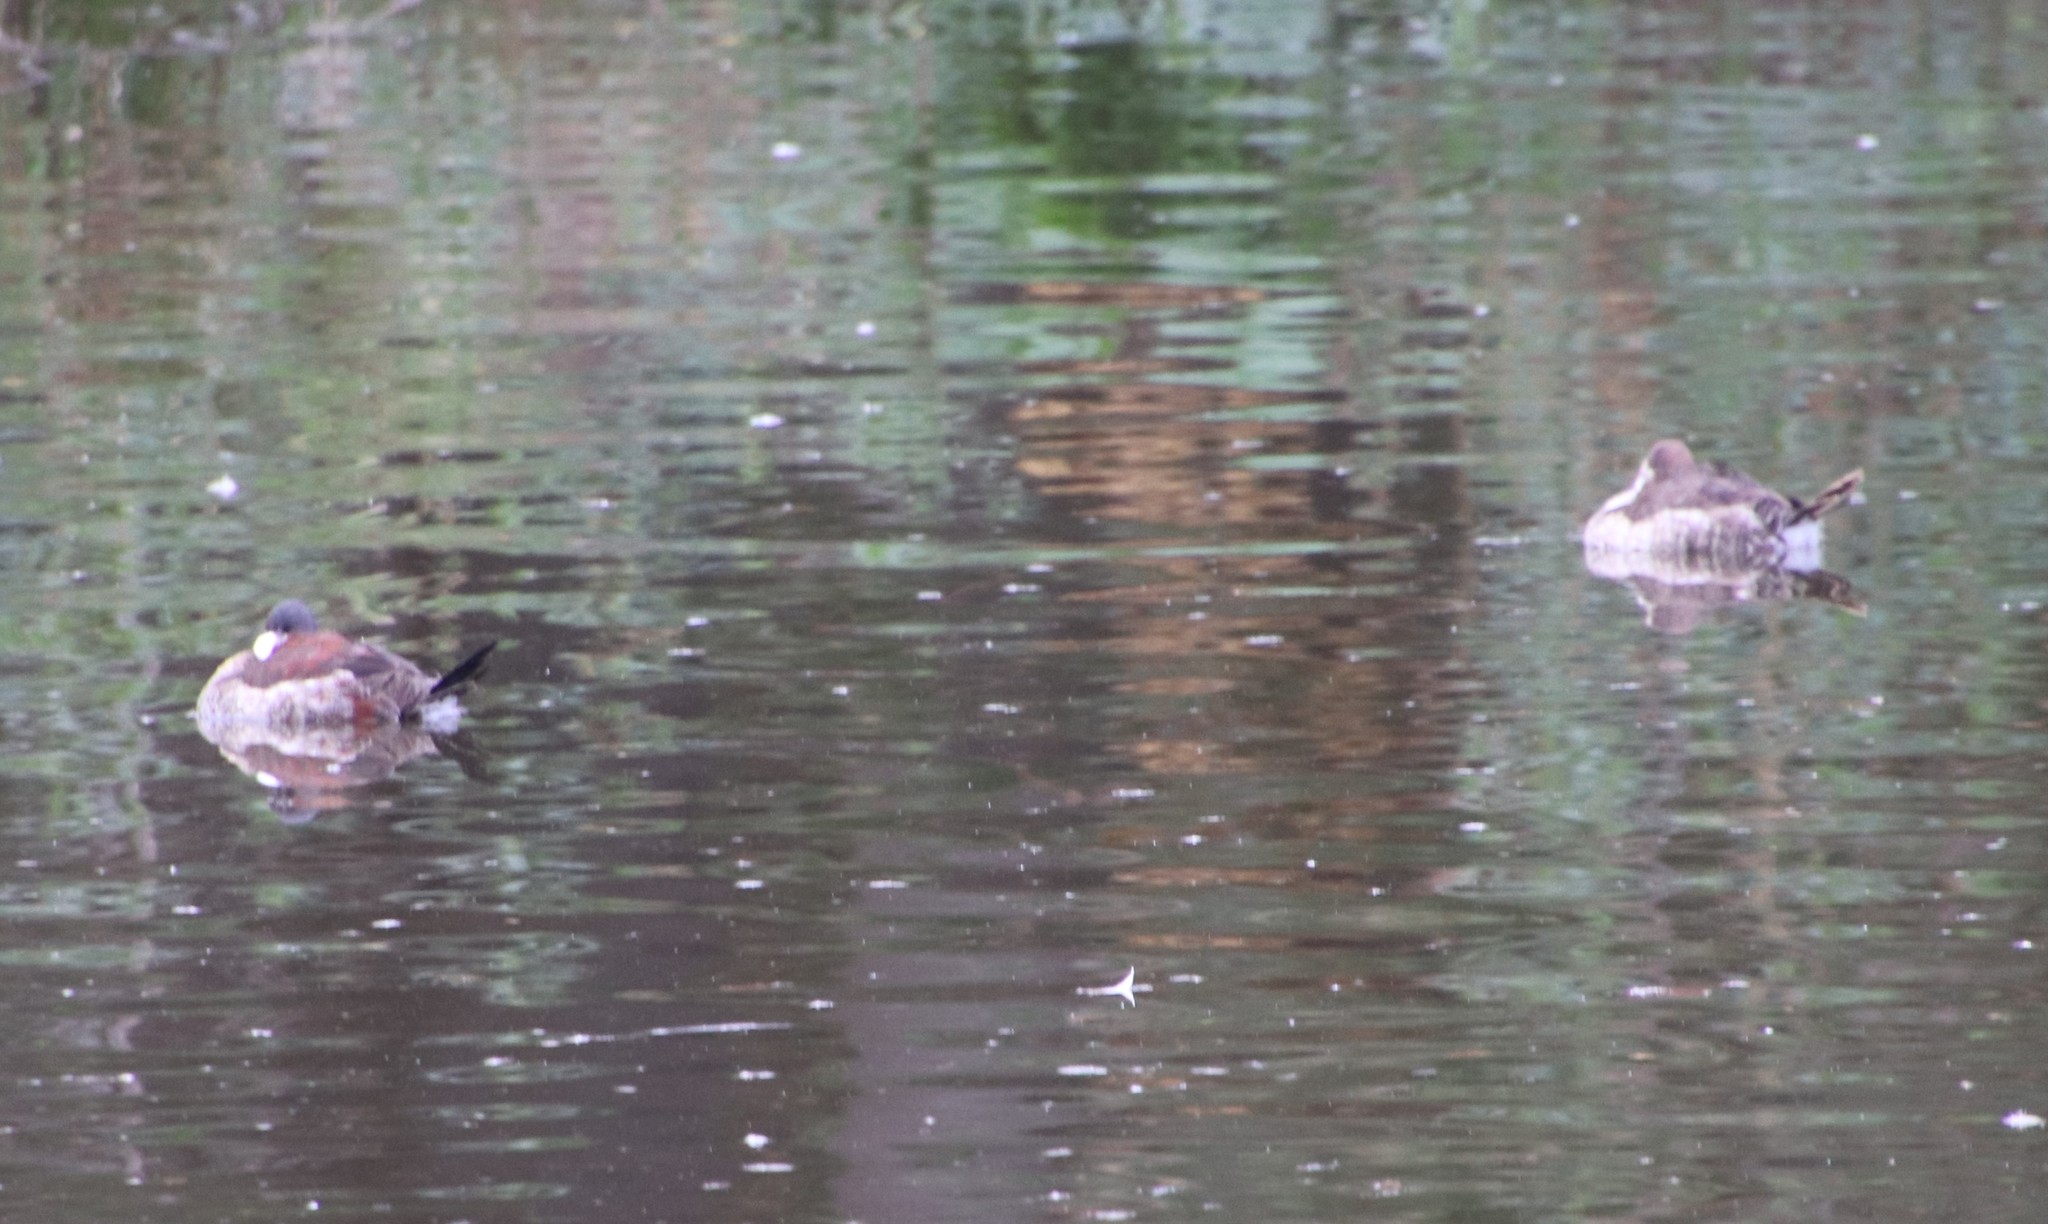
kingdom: Animalia
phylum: Chordata
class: Aves
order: Anseriformes
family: Anatidae
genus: Oxyura
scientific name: Oxyura jamaicensis
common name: Ruddy duck
